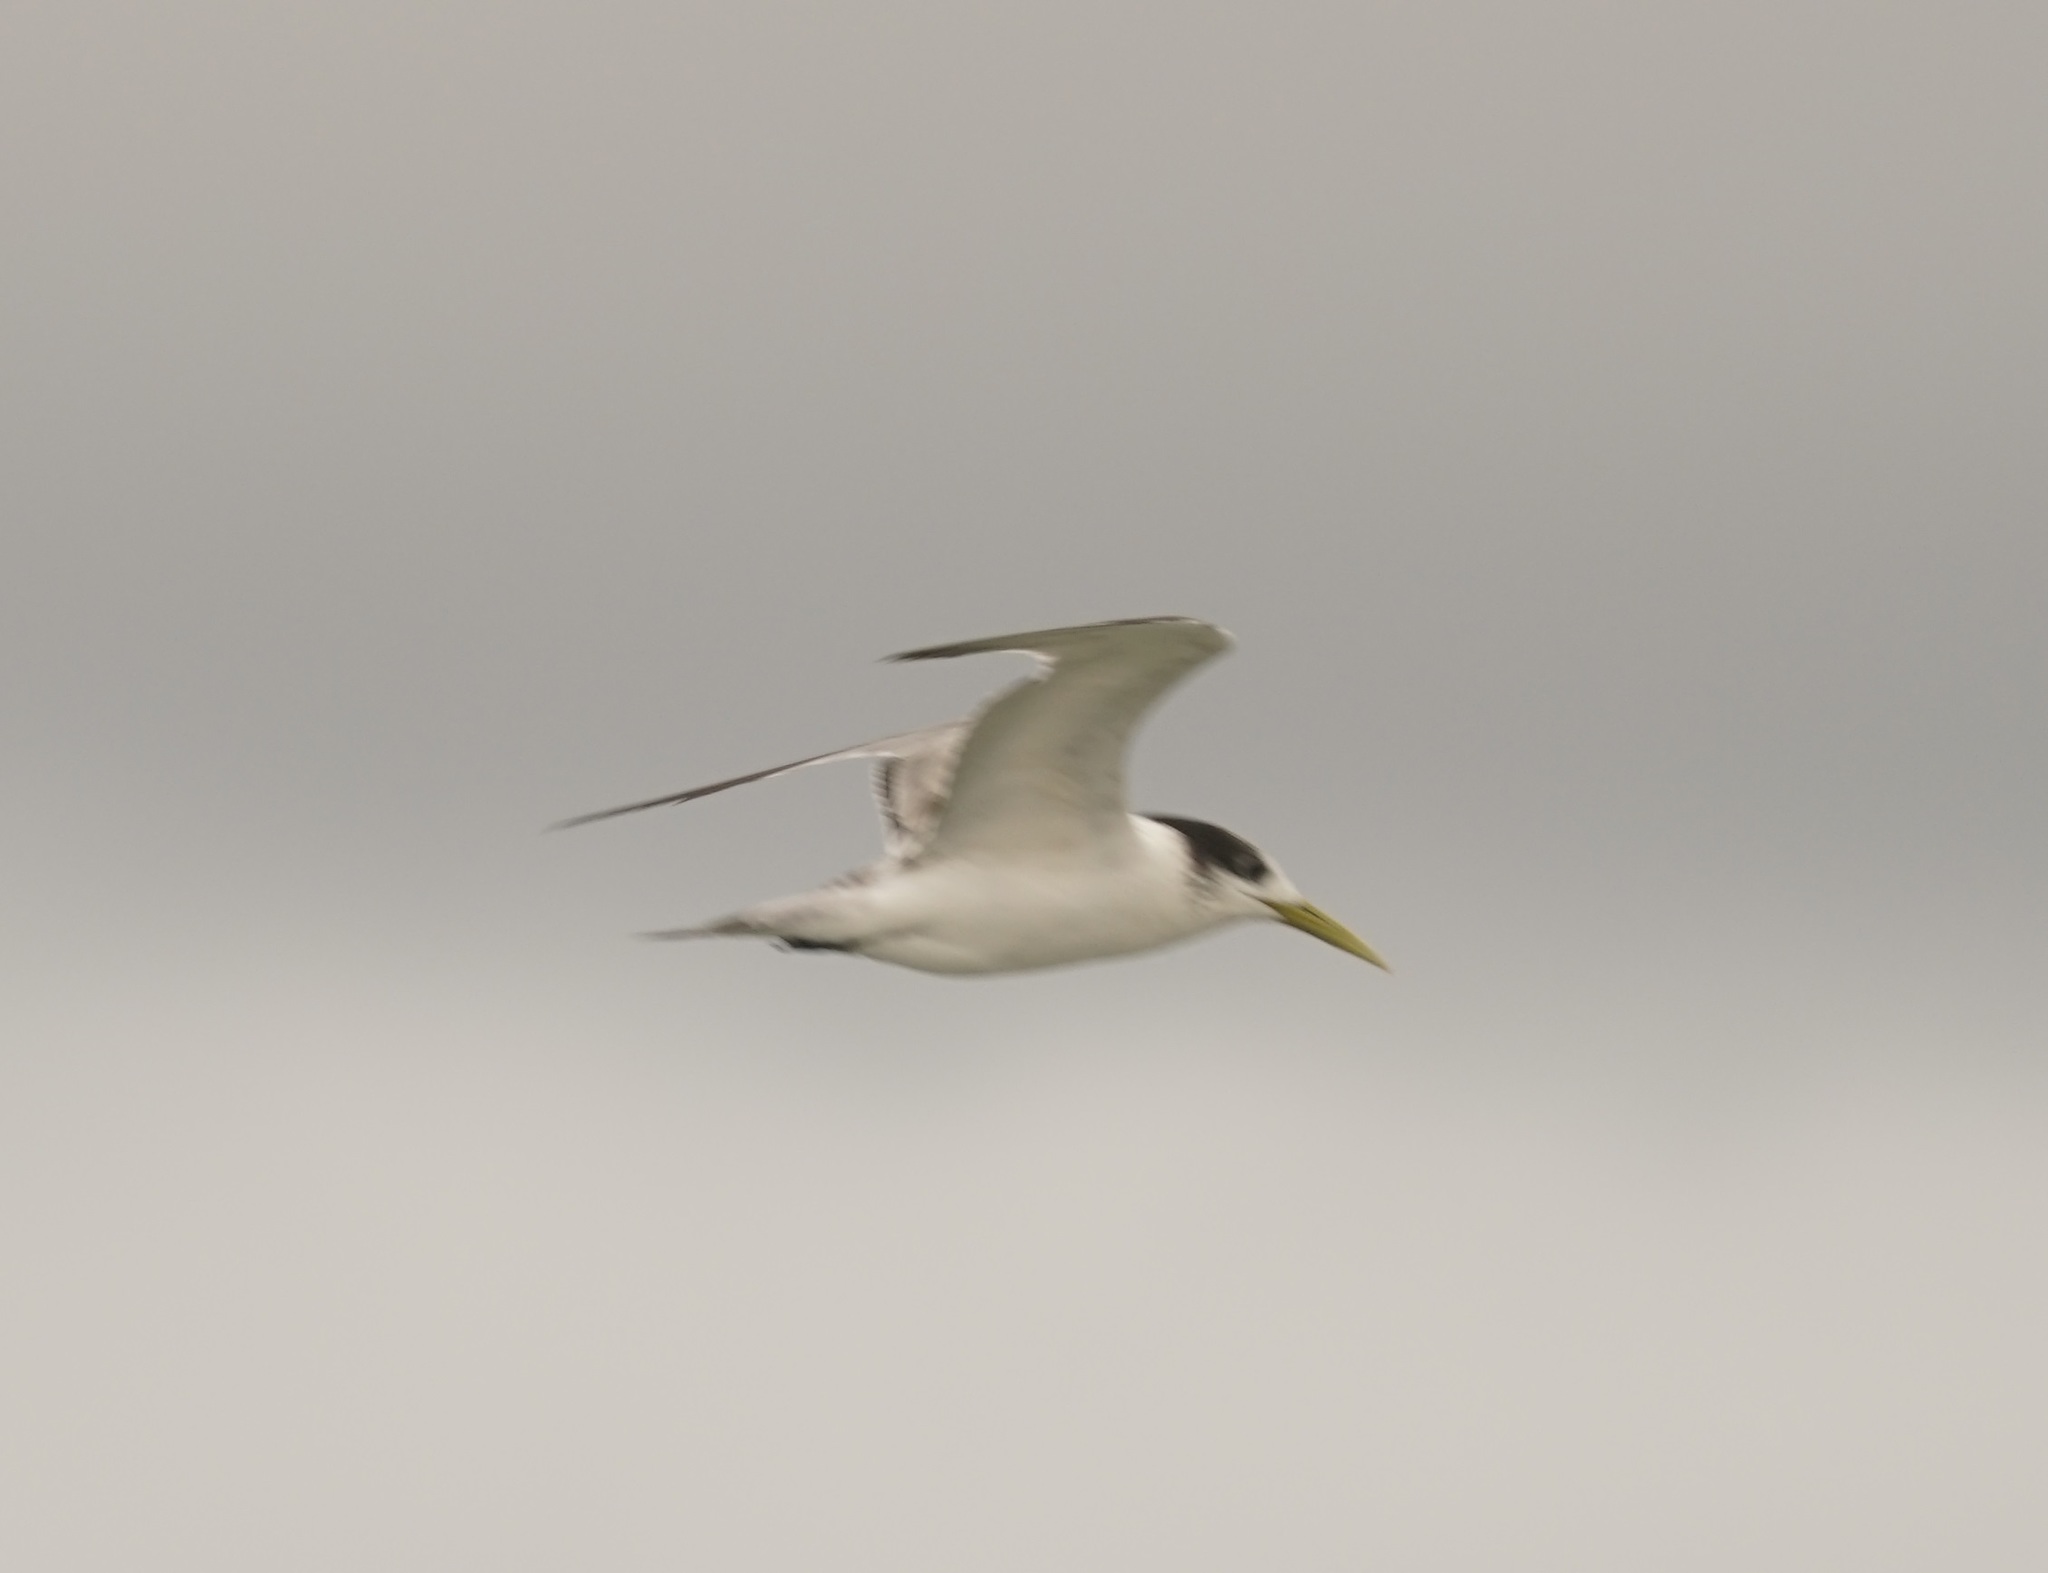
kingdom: Animalia
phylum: Chordata
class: Aves
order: Charadriiformes
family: Laridae
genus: Thalasseus
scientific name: Thalasseus bergii
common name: Greater crested tern
